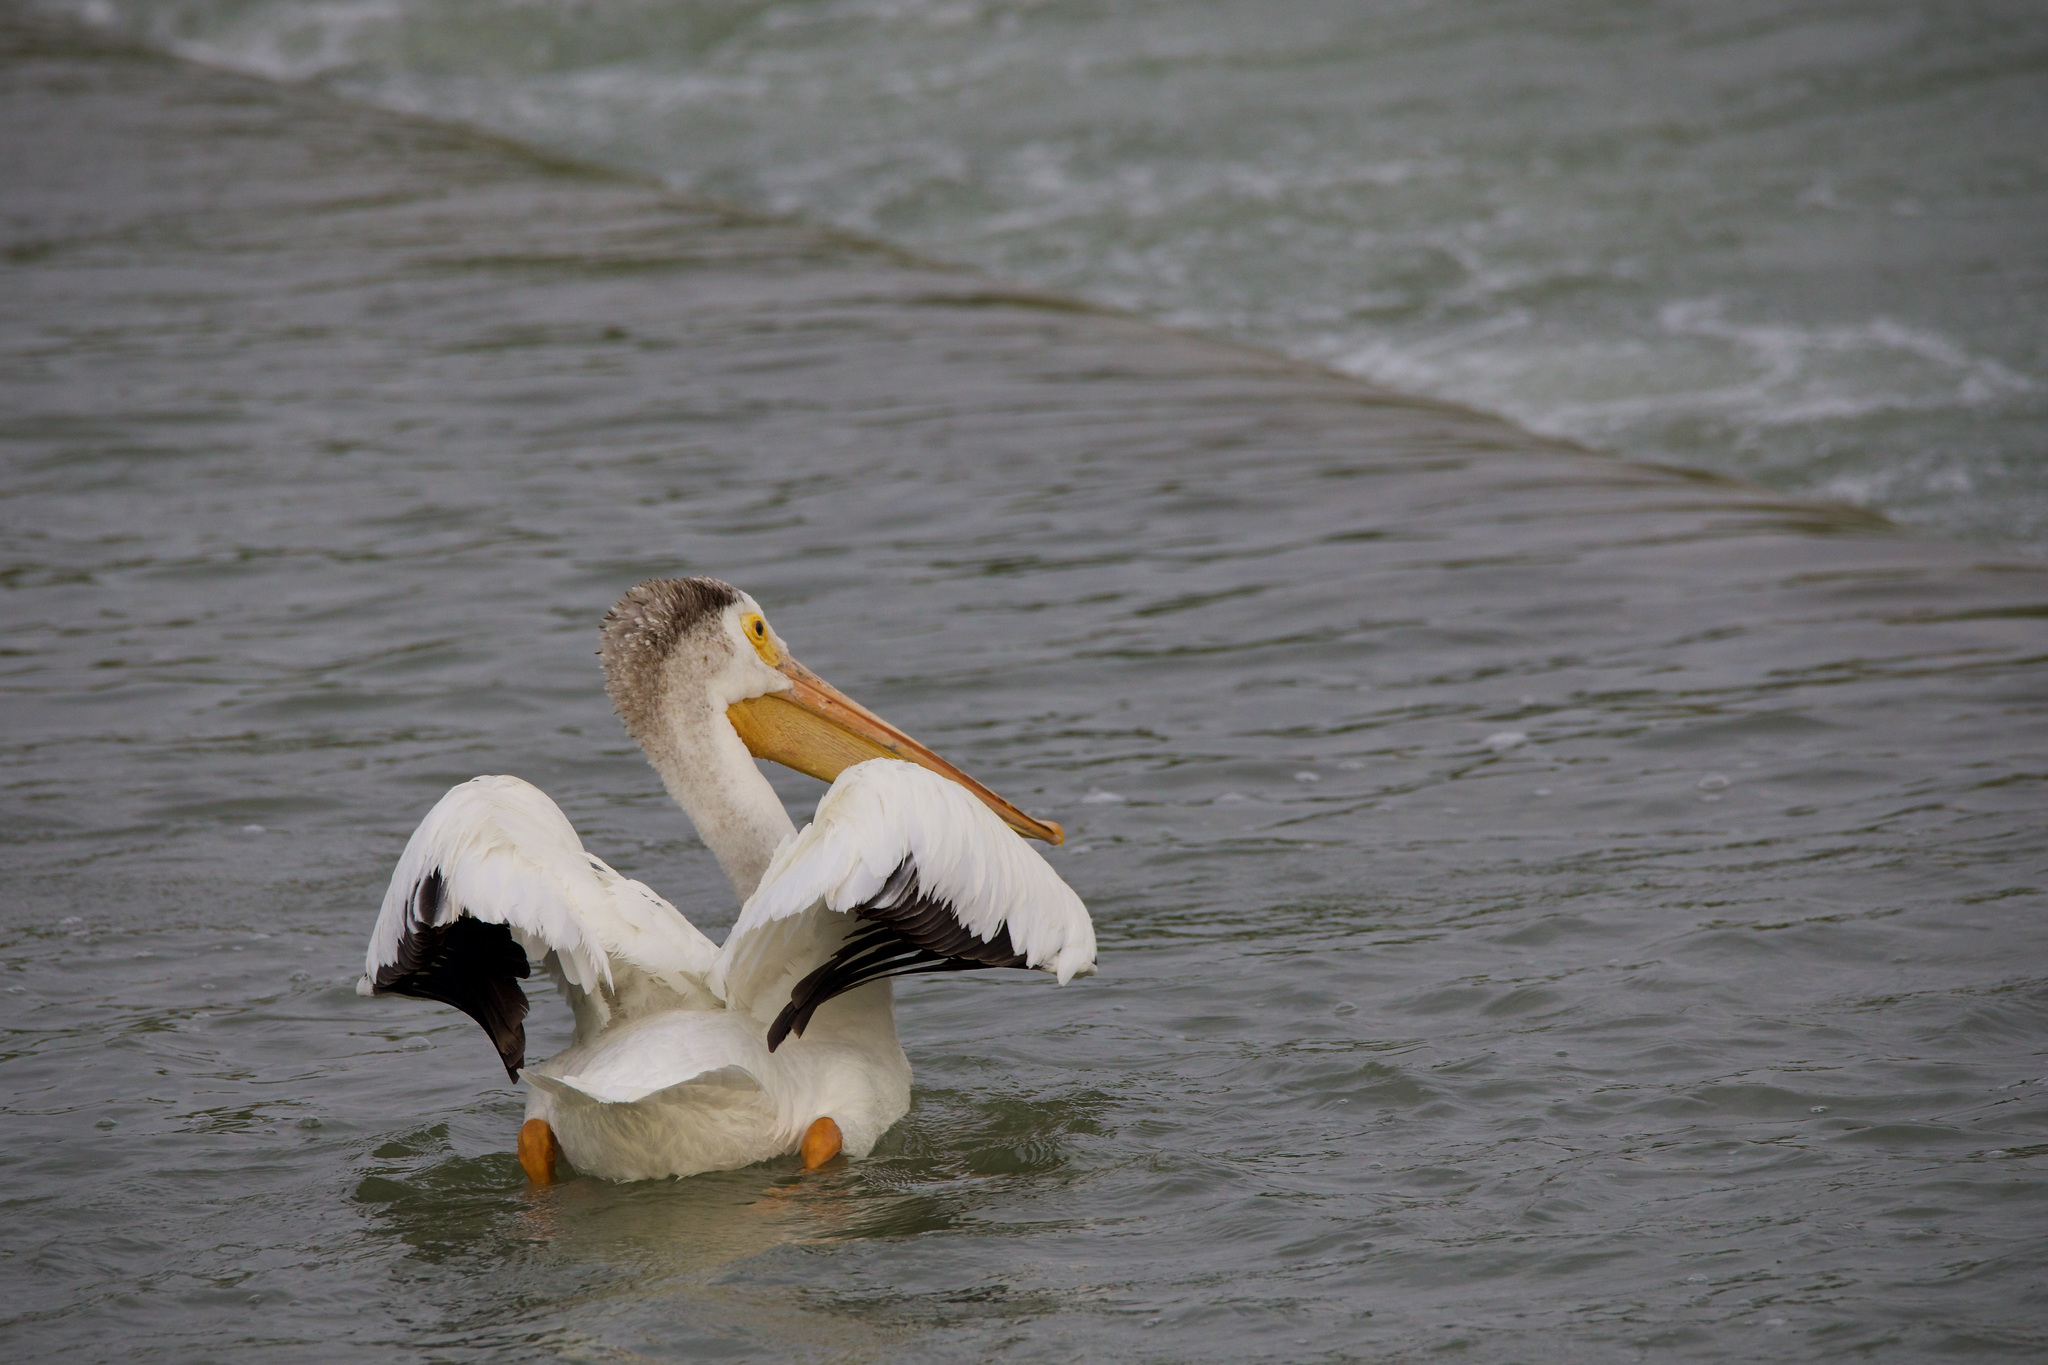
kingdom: Animalia
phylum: Chordata
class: Aves
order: Pelecaniformes
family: Pelecanidae
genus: Pelecanus
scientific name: Pelecanus erythrorhynchos
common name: American white pelican
